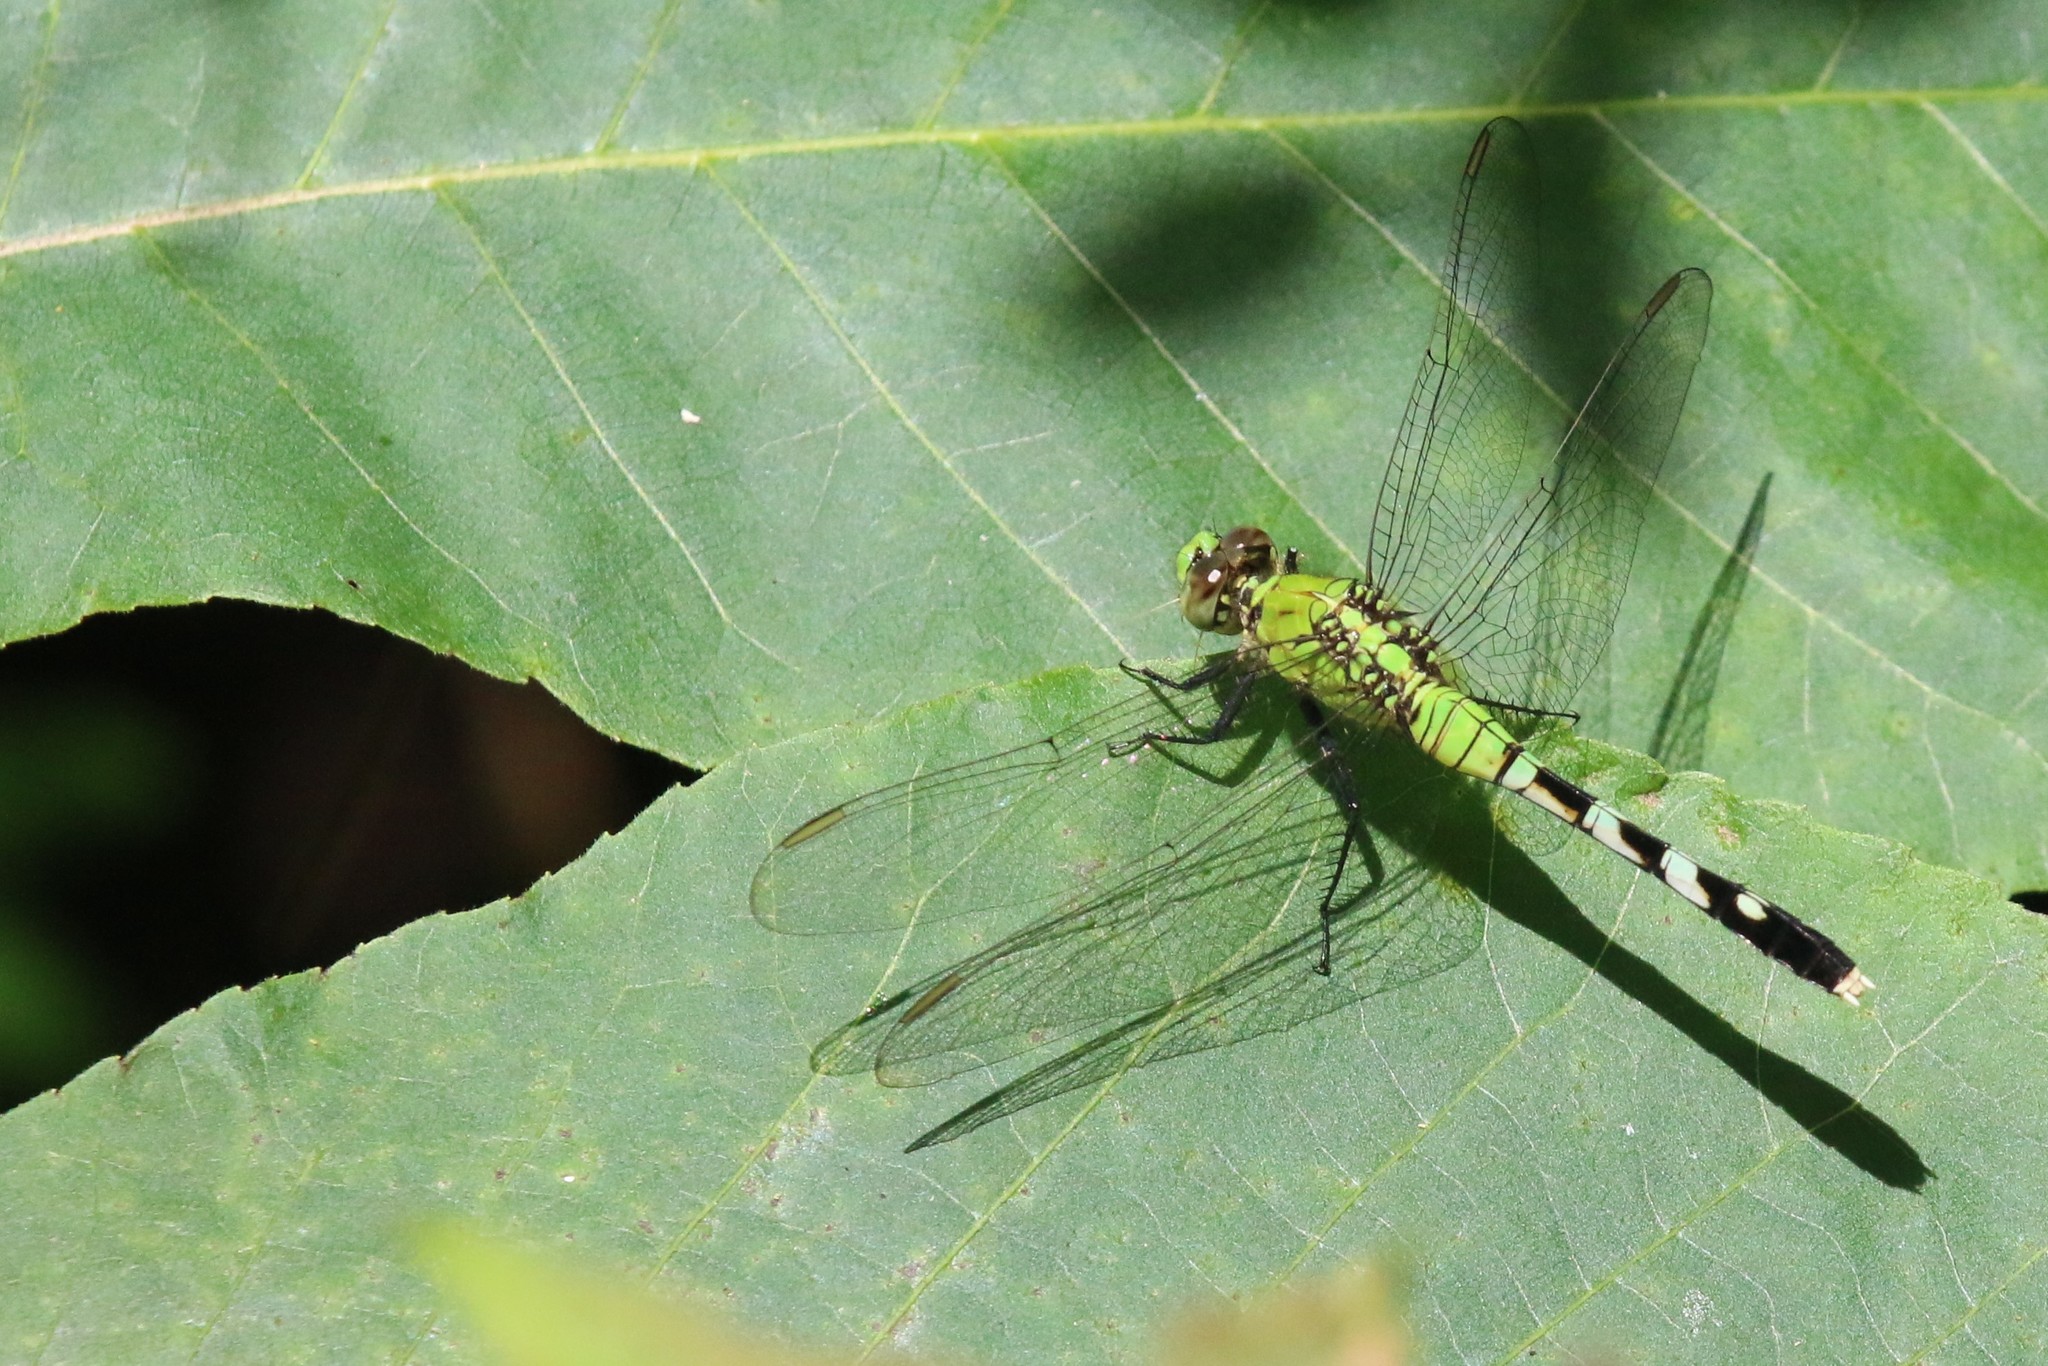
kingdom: Animalia
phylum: Arthropoda
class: Insecta
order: Odonata
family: Libellulidae
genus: Erythemis
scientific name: Erythemis simplicicollis
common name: Eastern pondhawk
